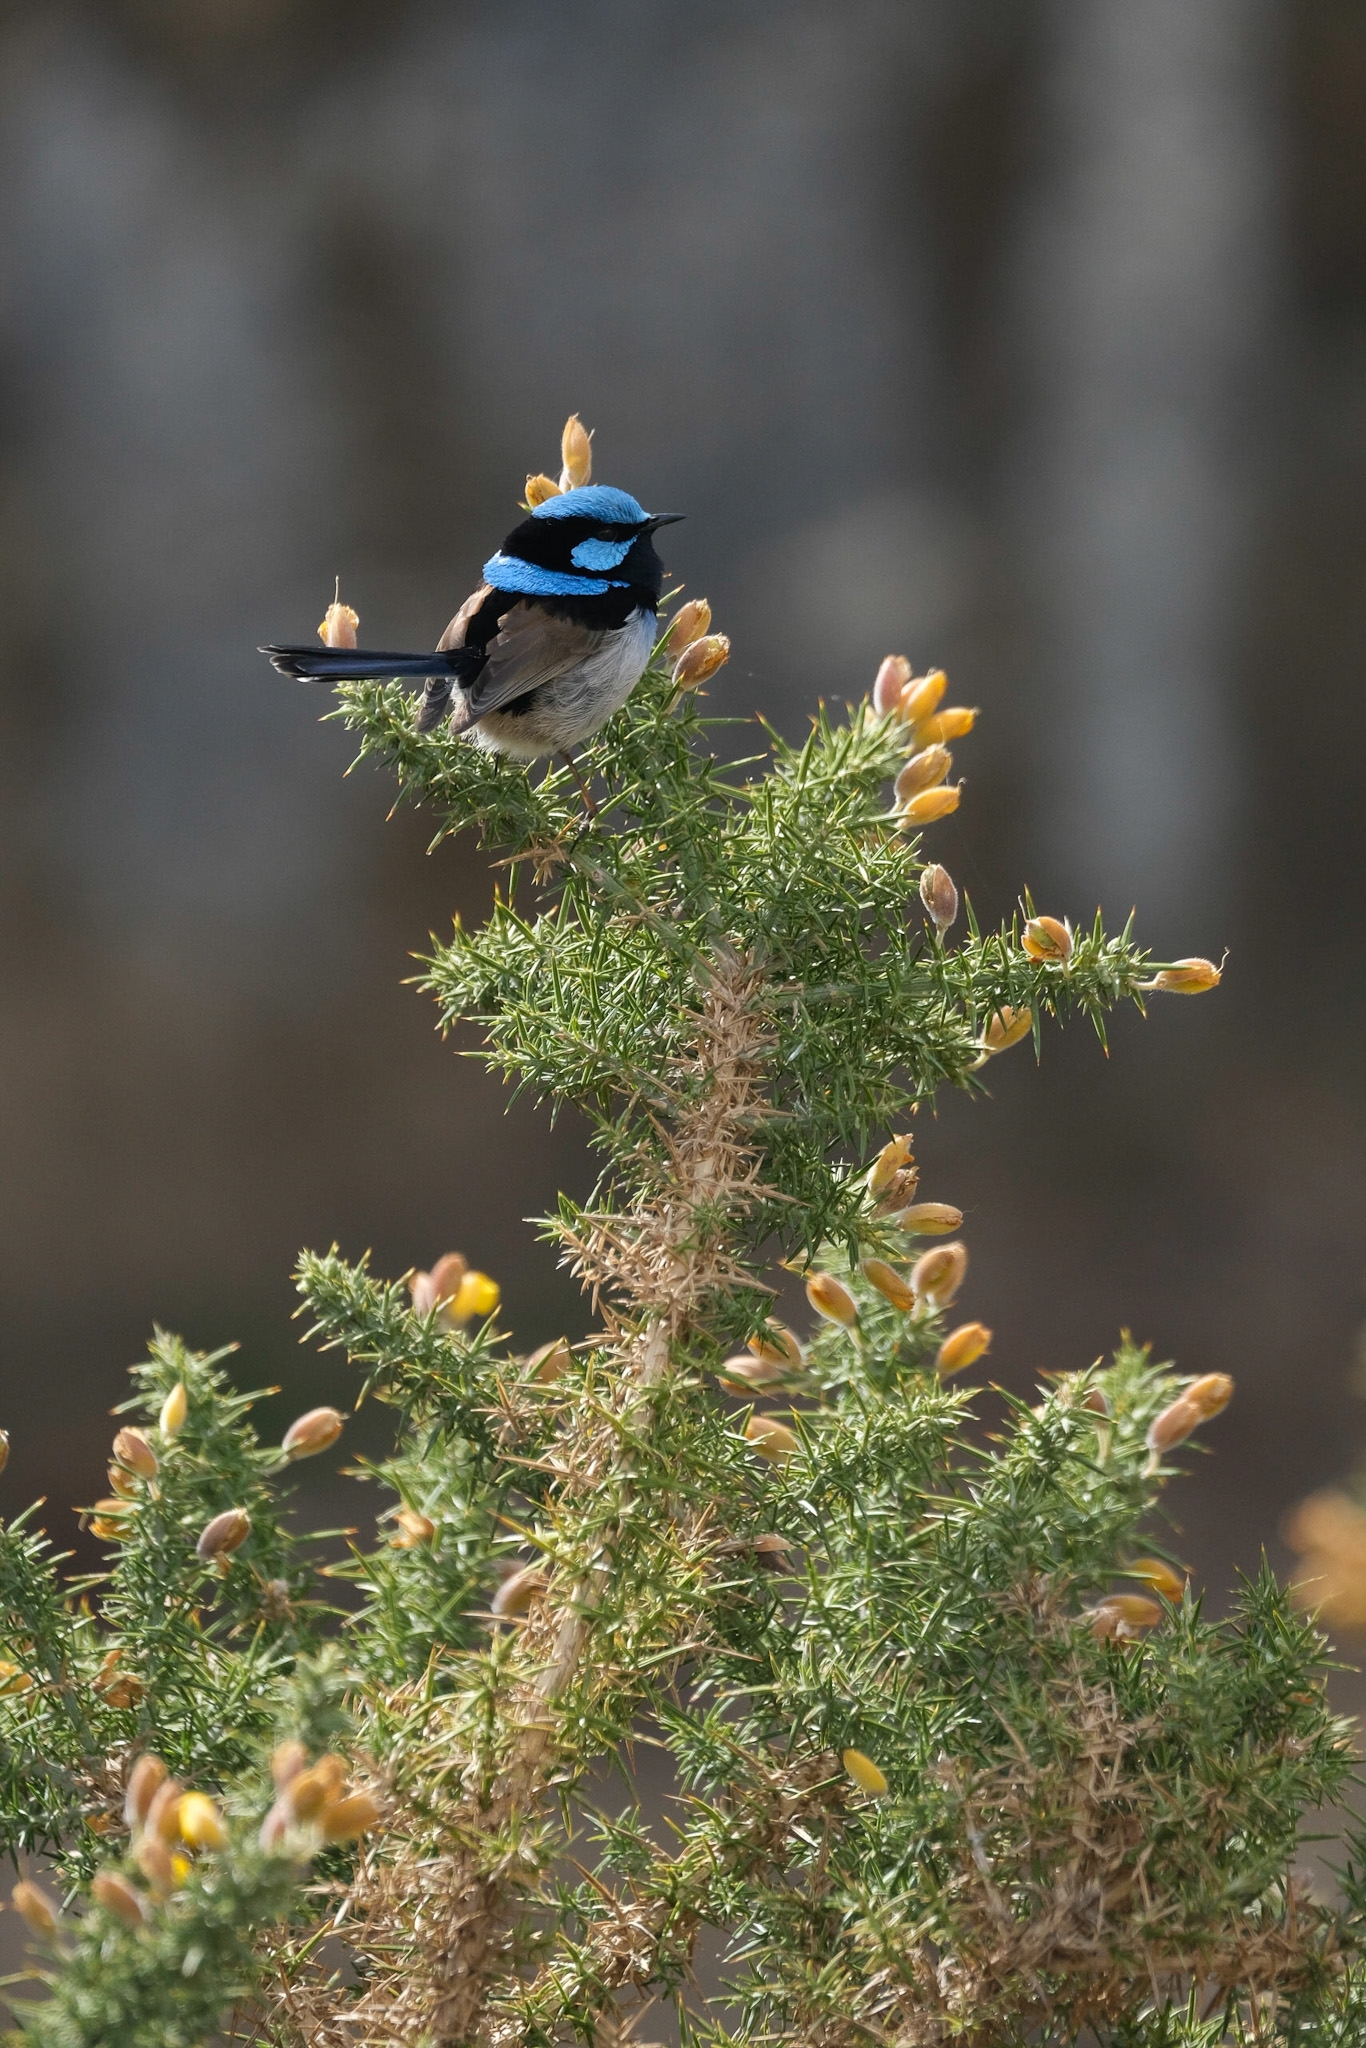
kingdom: Animalia
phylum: Chordata
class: Aves
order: Passeriformes
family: Maluridae
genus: Malurus
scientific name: Malurus cyaneus
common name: Superb fairywren
